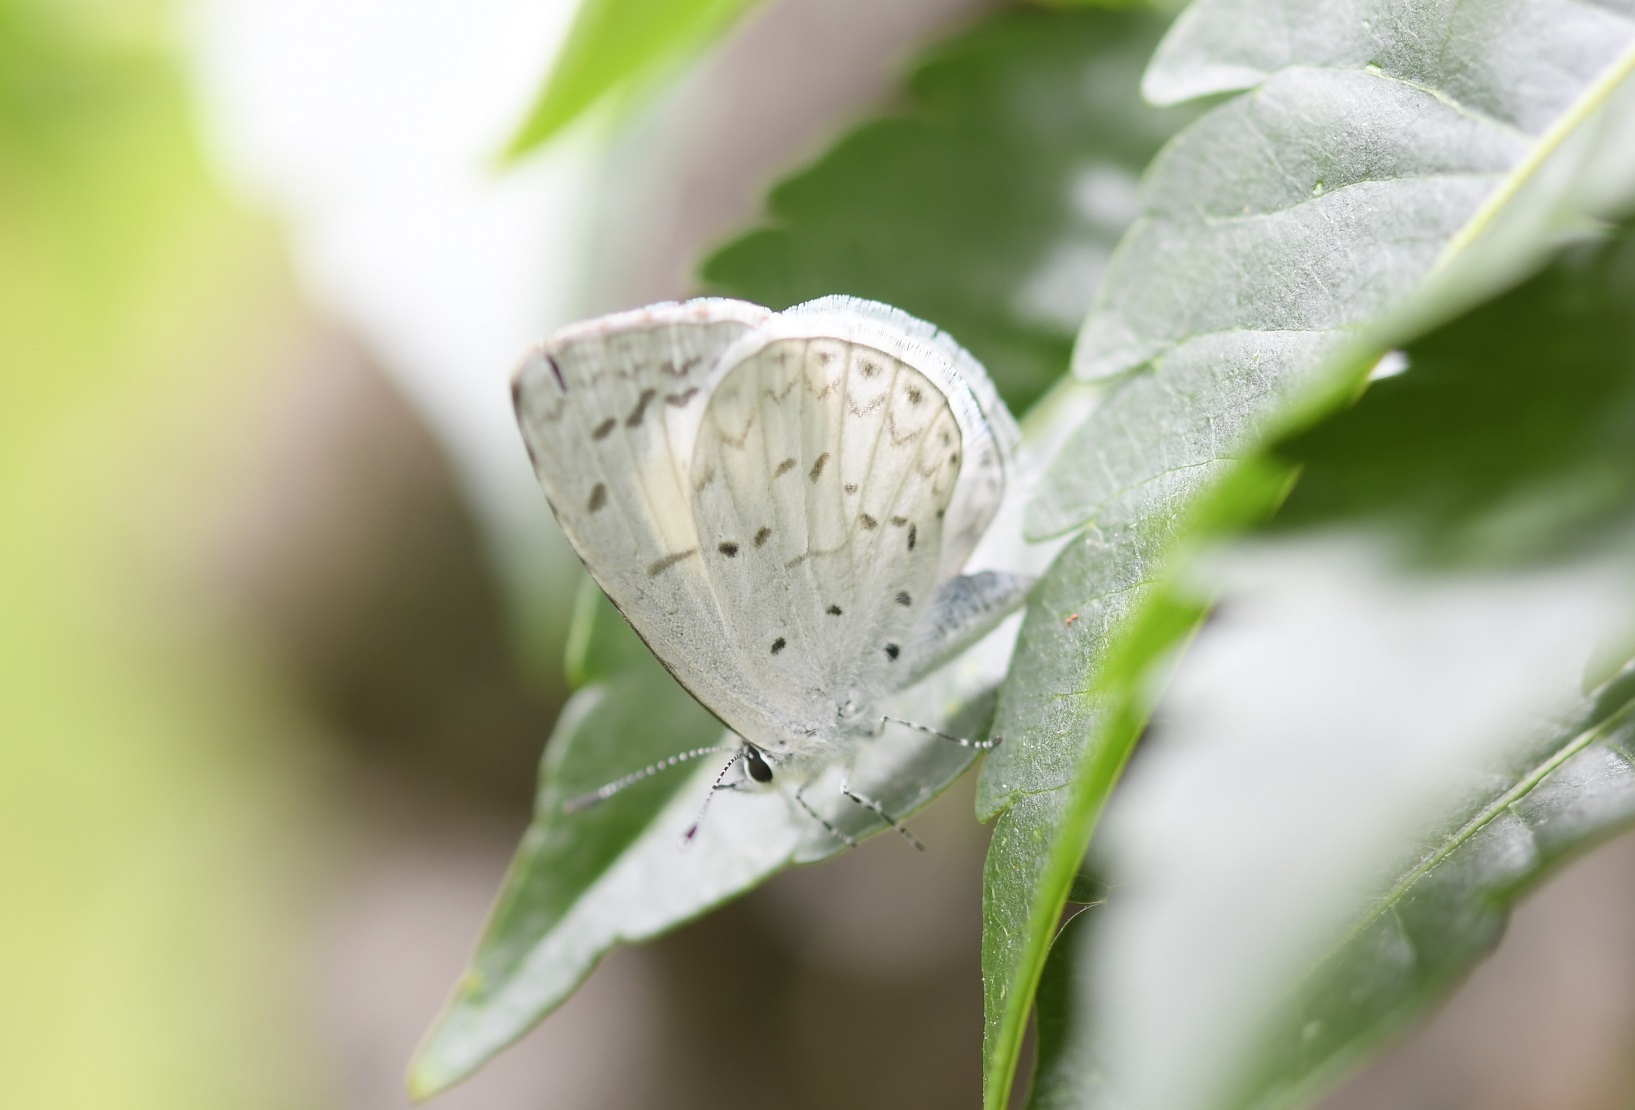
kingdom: Animalia
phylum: Arthropoda
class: Insecta
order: Lepidoptera
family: Lycaenidae
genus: Celastrina
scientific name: Celastrina ladon
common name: Spring azure
